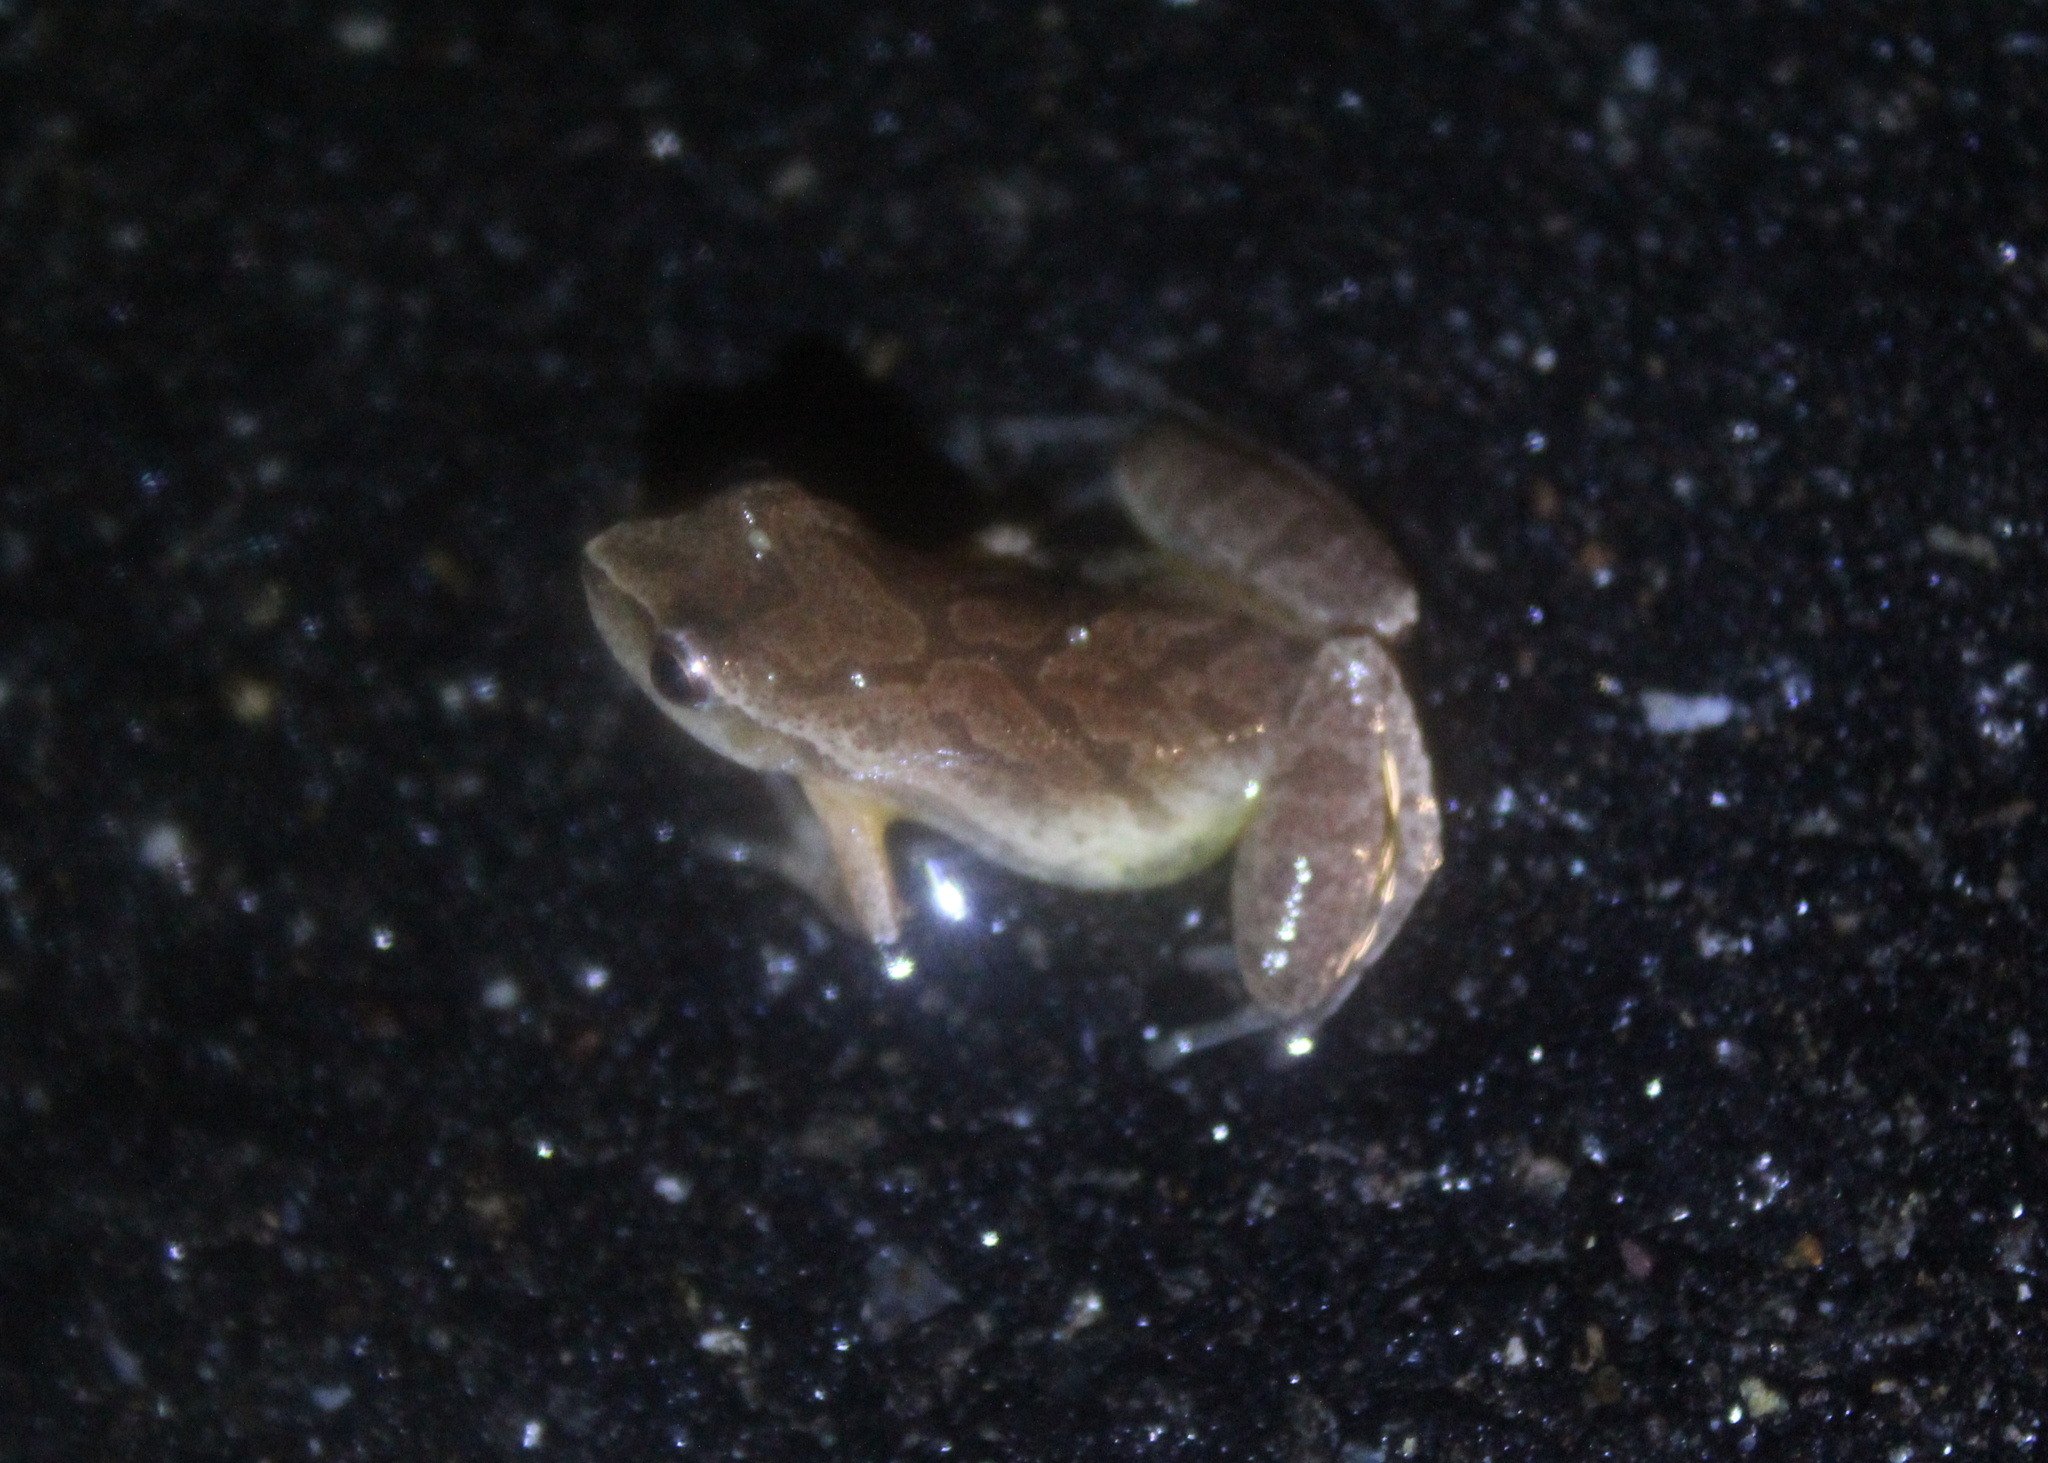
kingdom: Animalia
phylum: Chordata
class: Amphibia
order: Anura
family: Hylidae
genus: Pseudacris
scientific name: Pseudacris crucifer
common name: Spring peeper
